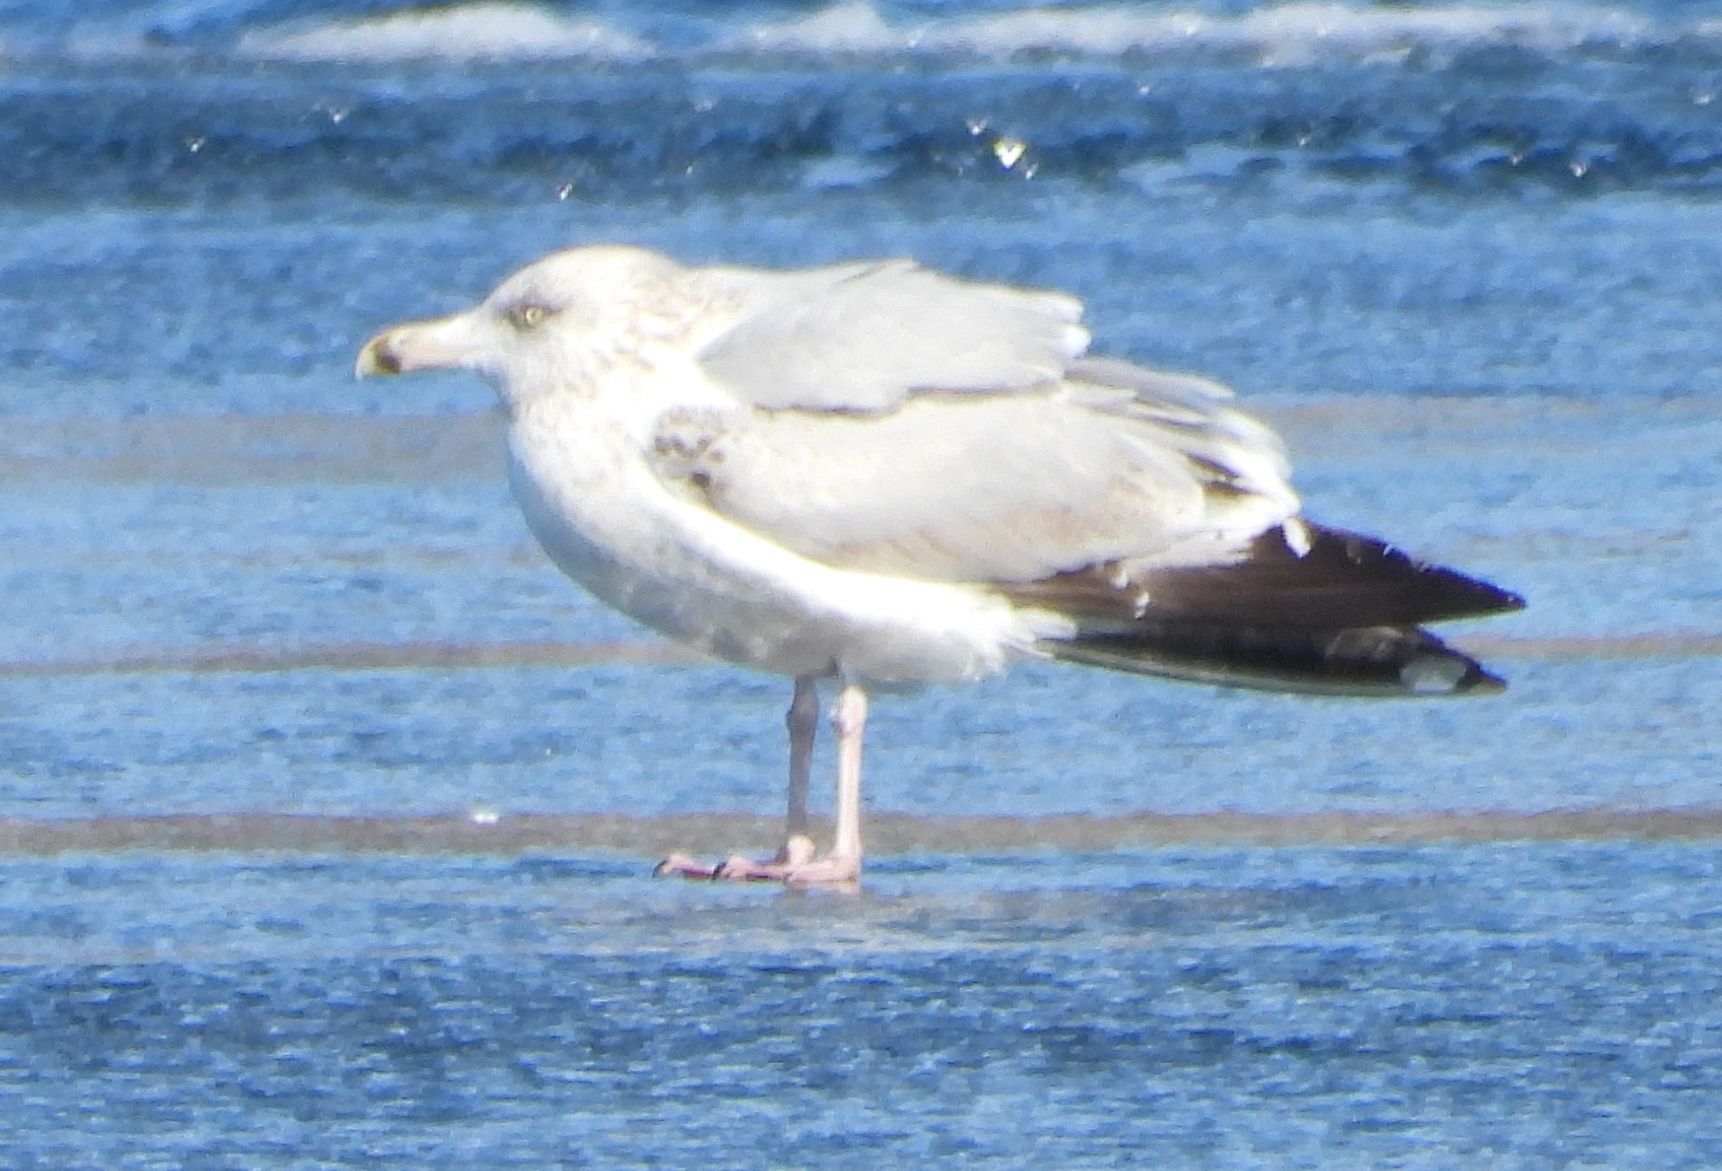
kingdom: Animalia
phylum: Chordata
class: Aves
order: Charadriiformes
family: Laridae
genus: Larus
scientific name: Larus argentatus
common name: Herring gull
